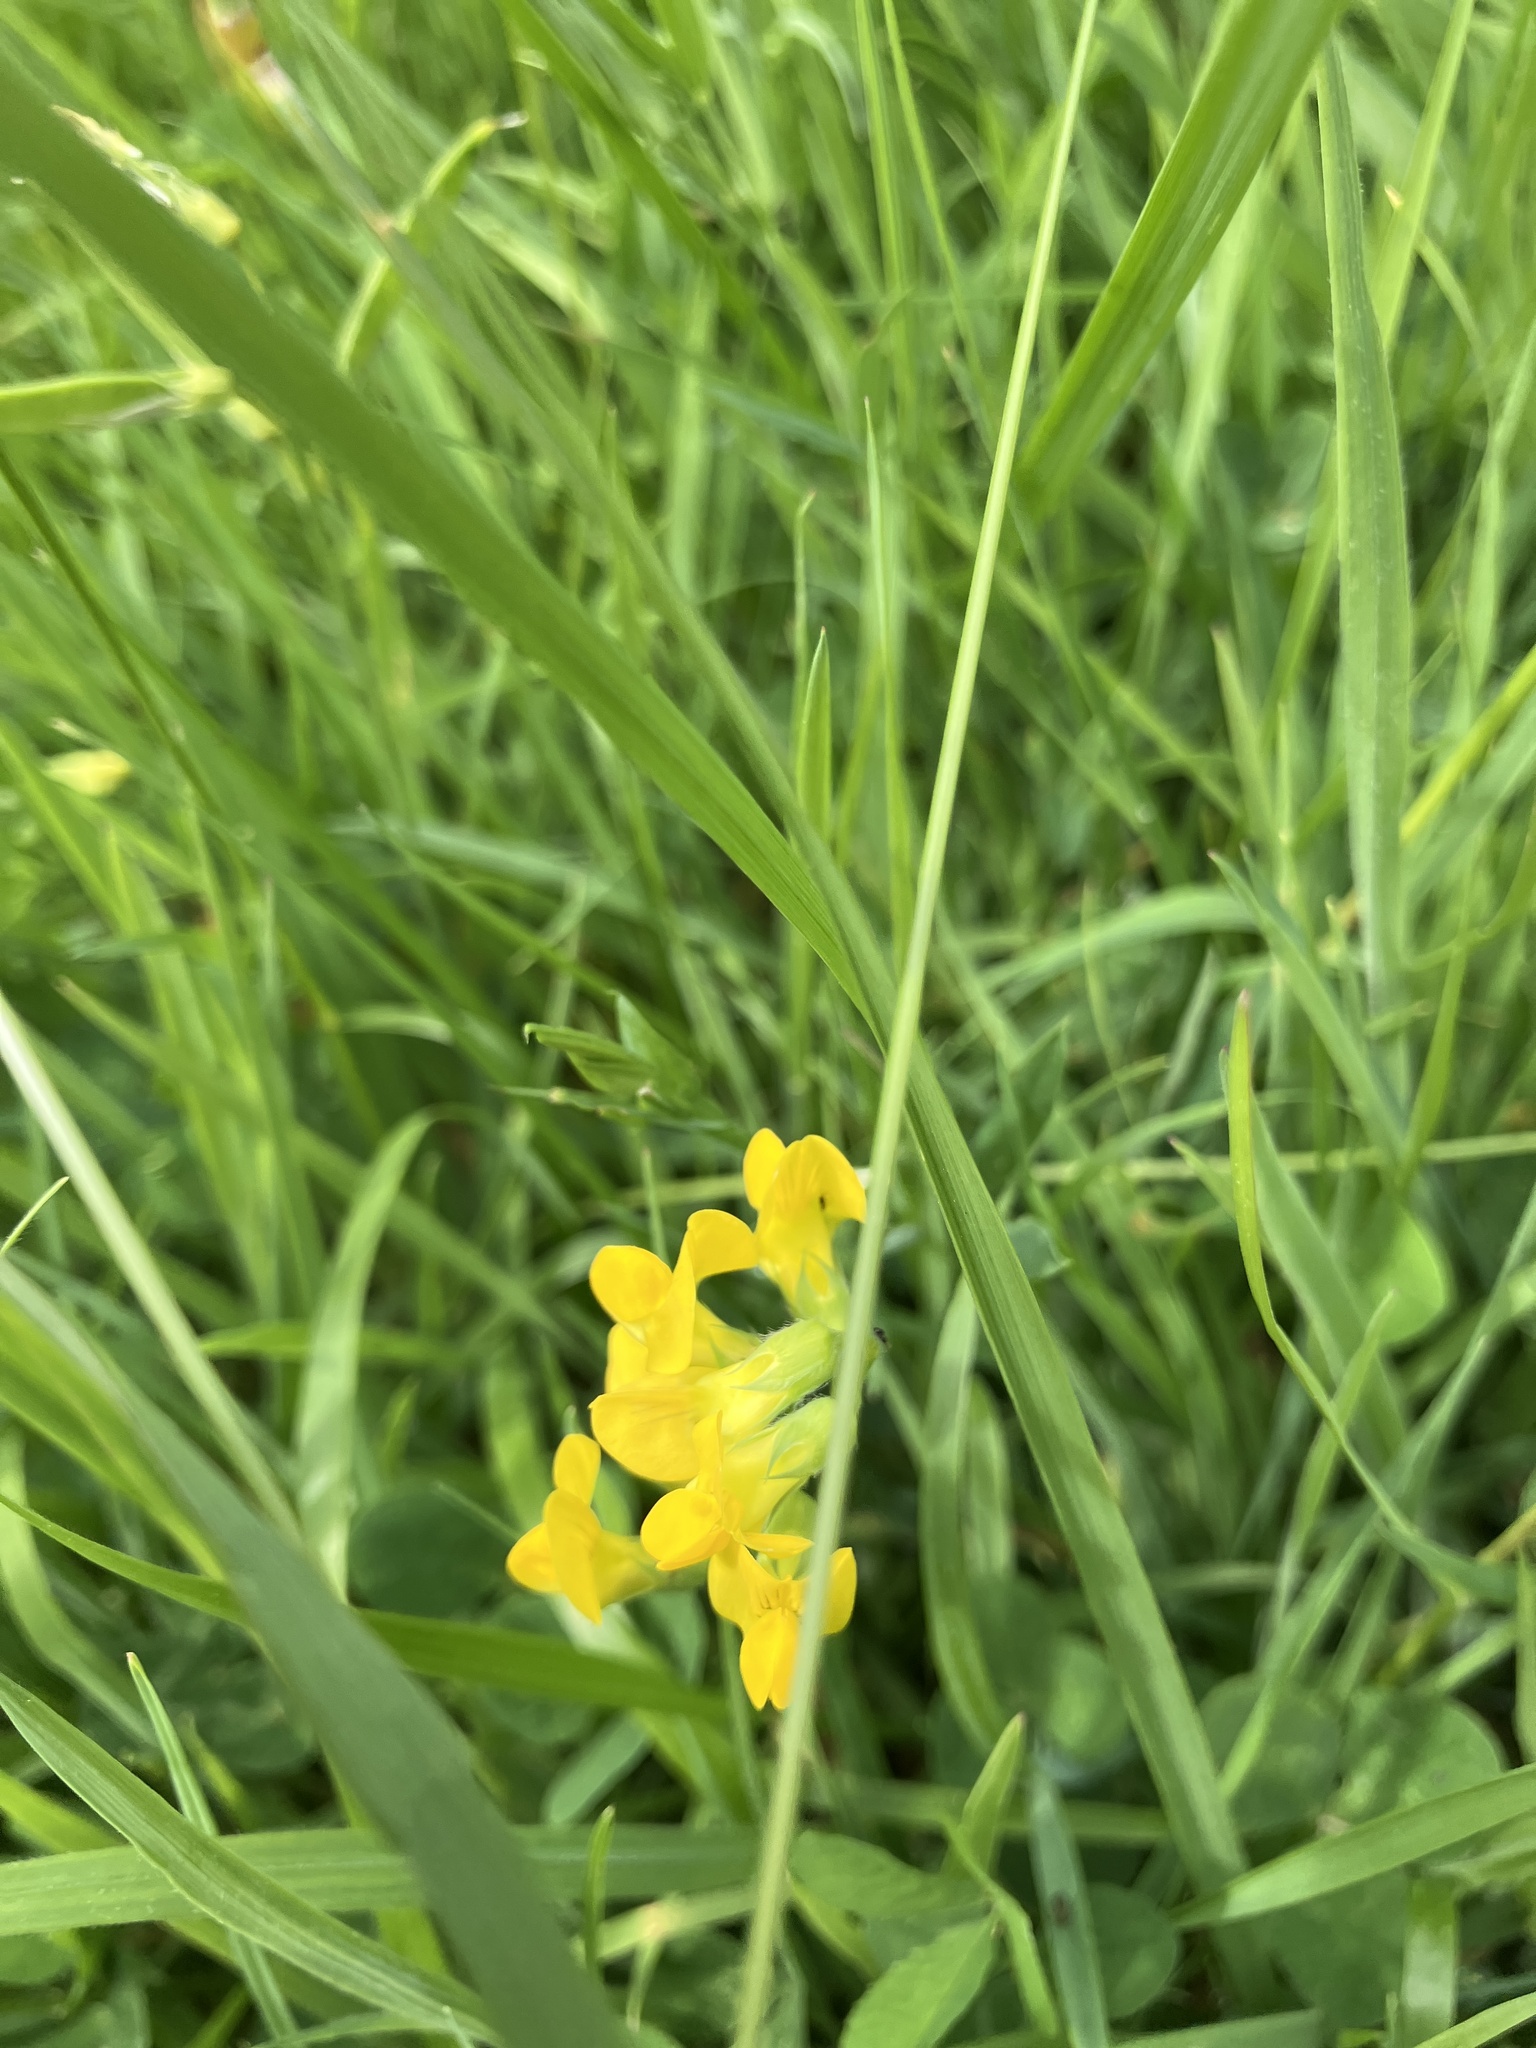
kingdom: Plantae
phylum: Tracheophyta
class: Magnoliopsida
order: Fabales
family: Fabaceae
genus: Lathyrus
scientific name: Lathyrus pratensis
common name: Meadow vetchling
